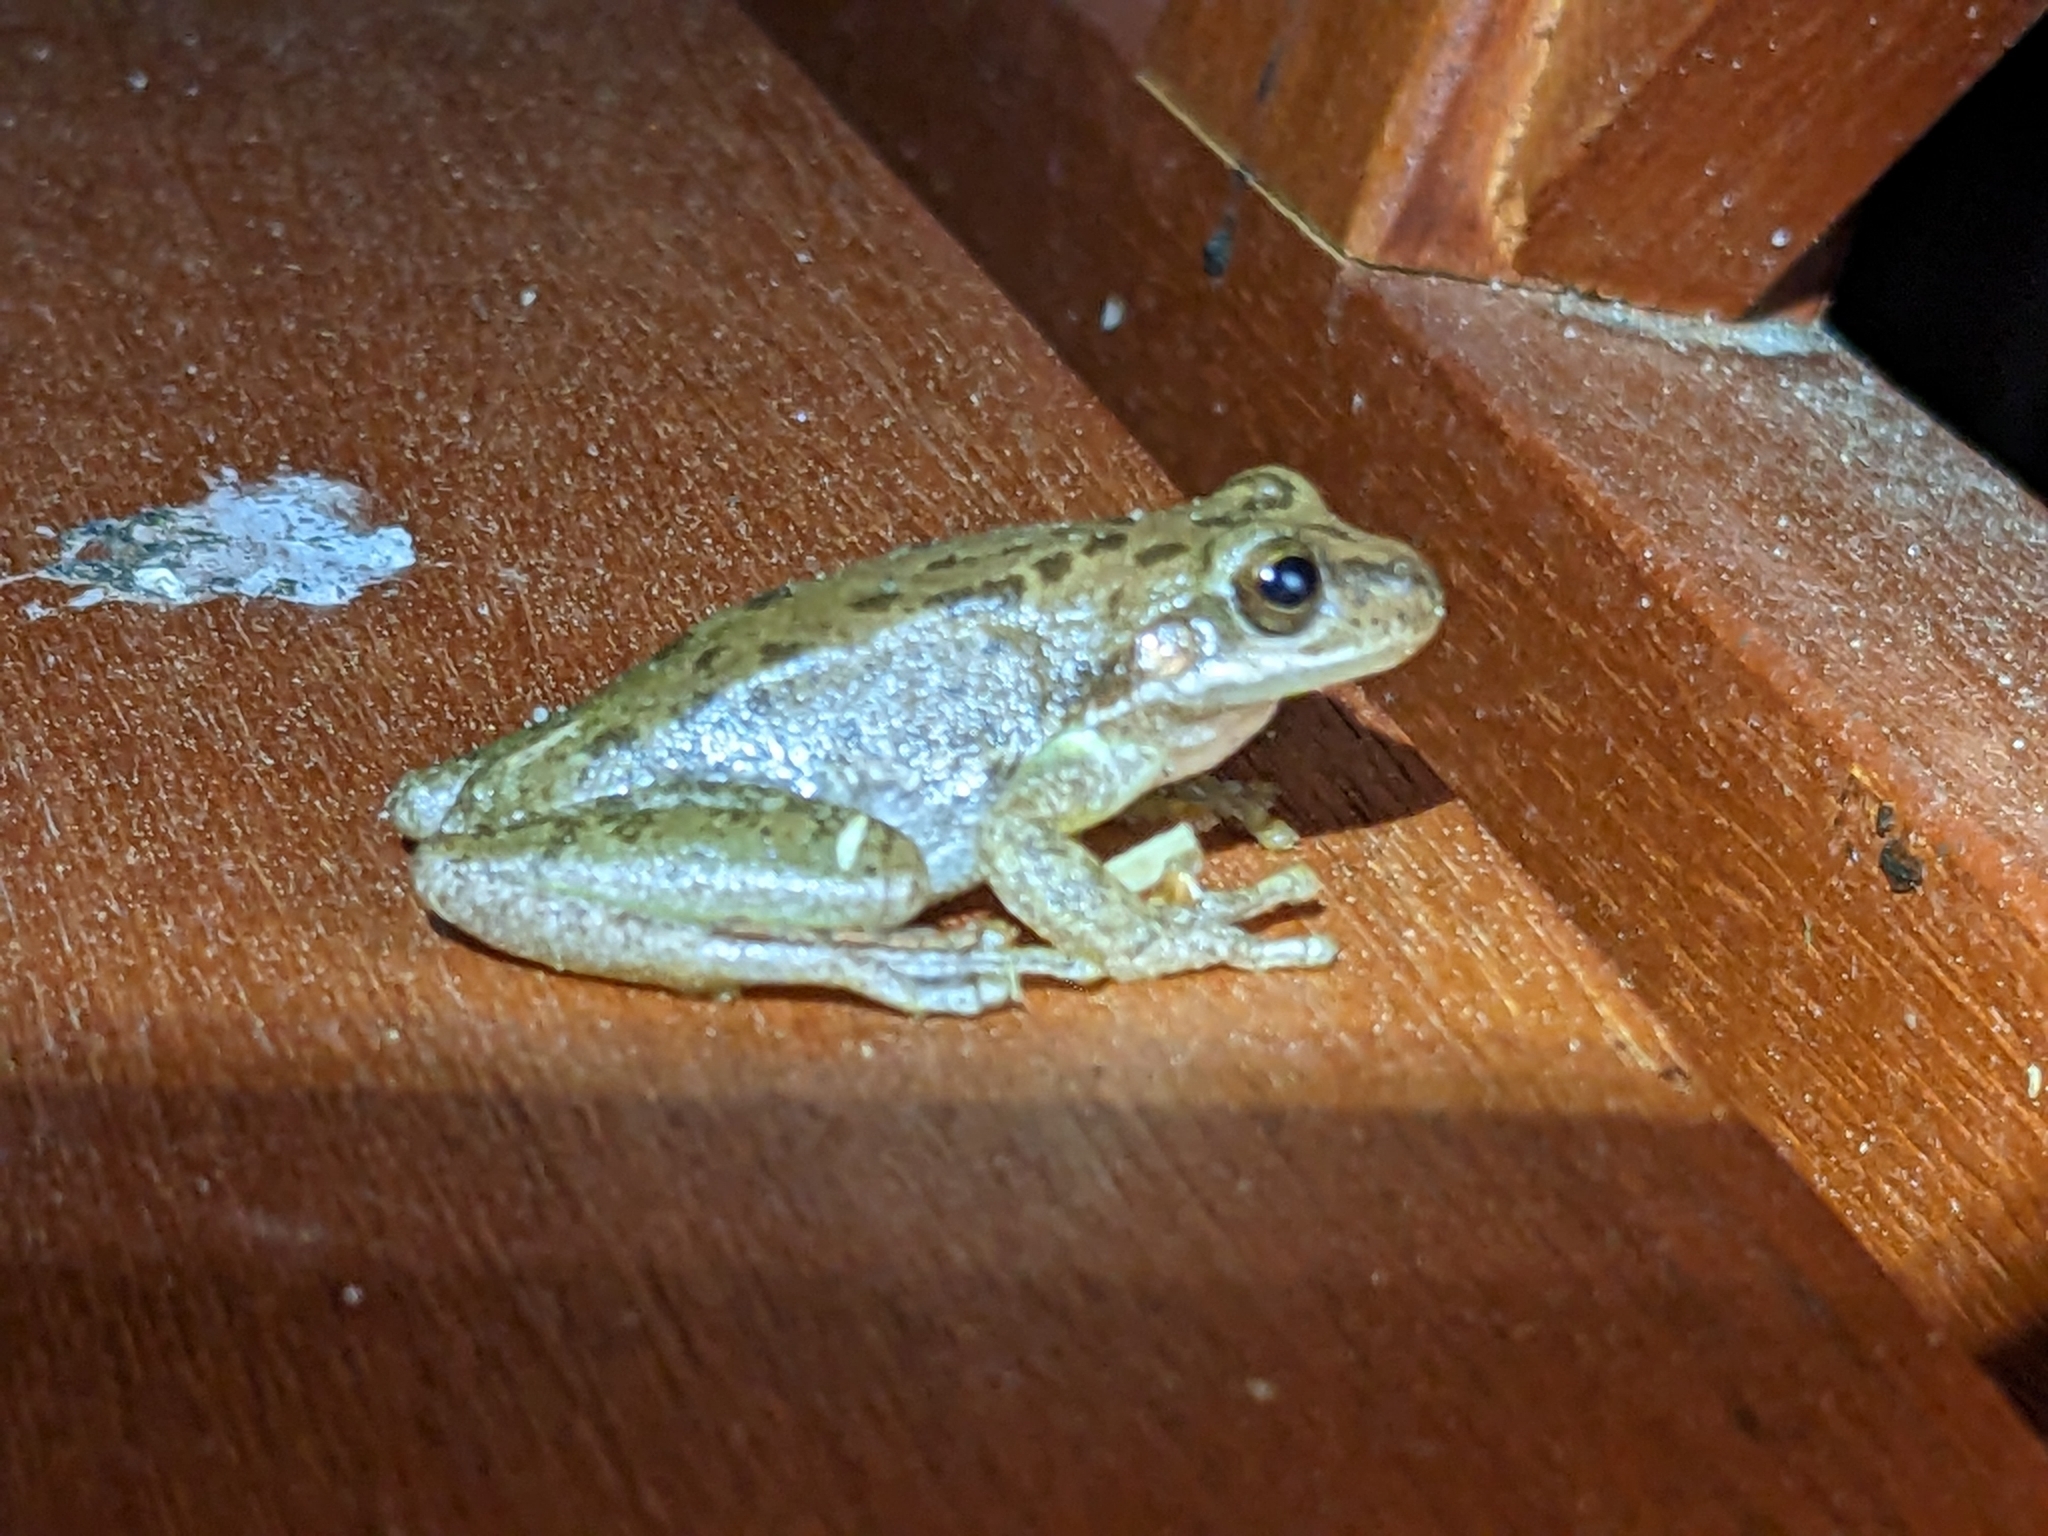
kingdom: Animalia
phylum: Chordata
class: Amphibia
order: Anura
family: Hylidae
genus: Dryophytes
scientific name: Dryophytes squirellus
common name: Squirrel treefrog
